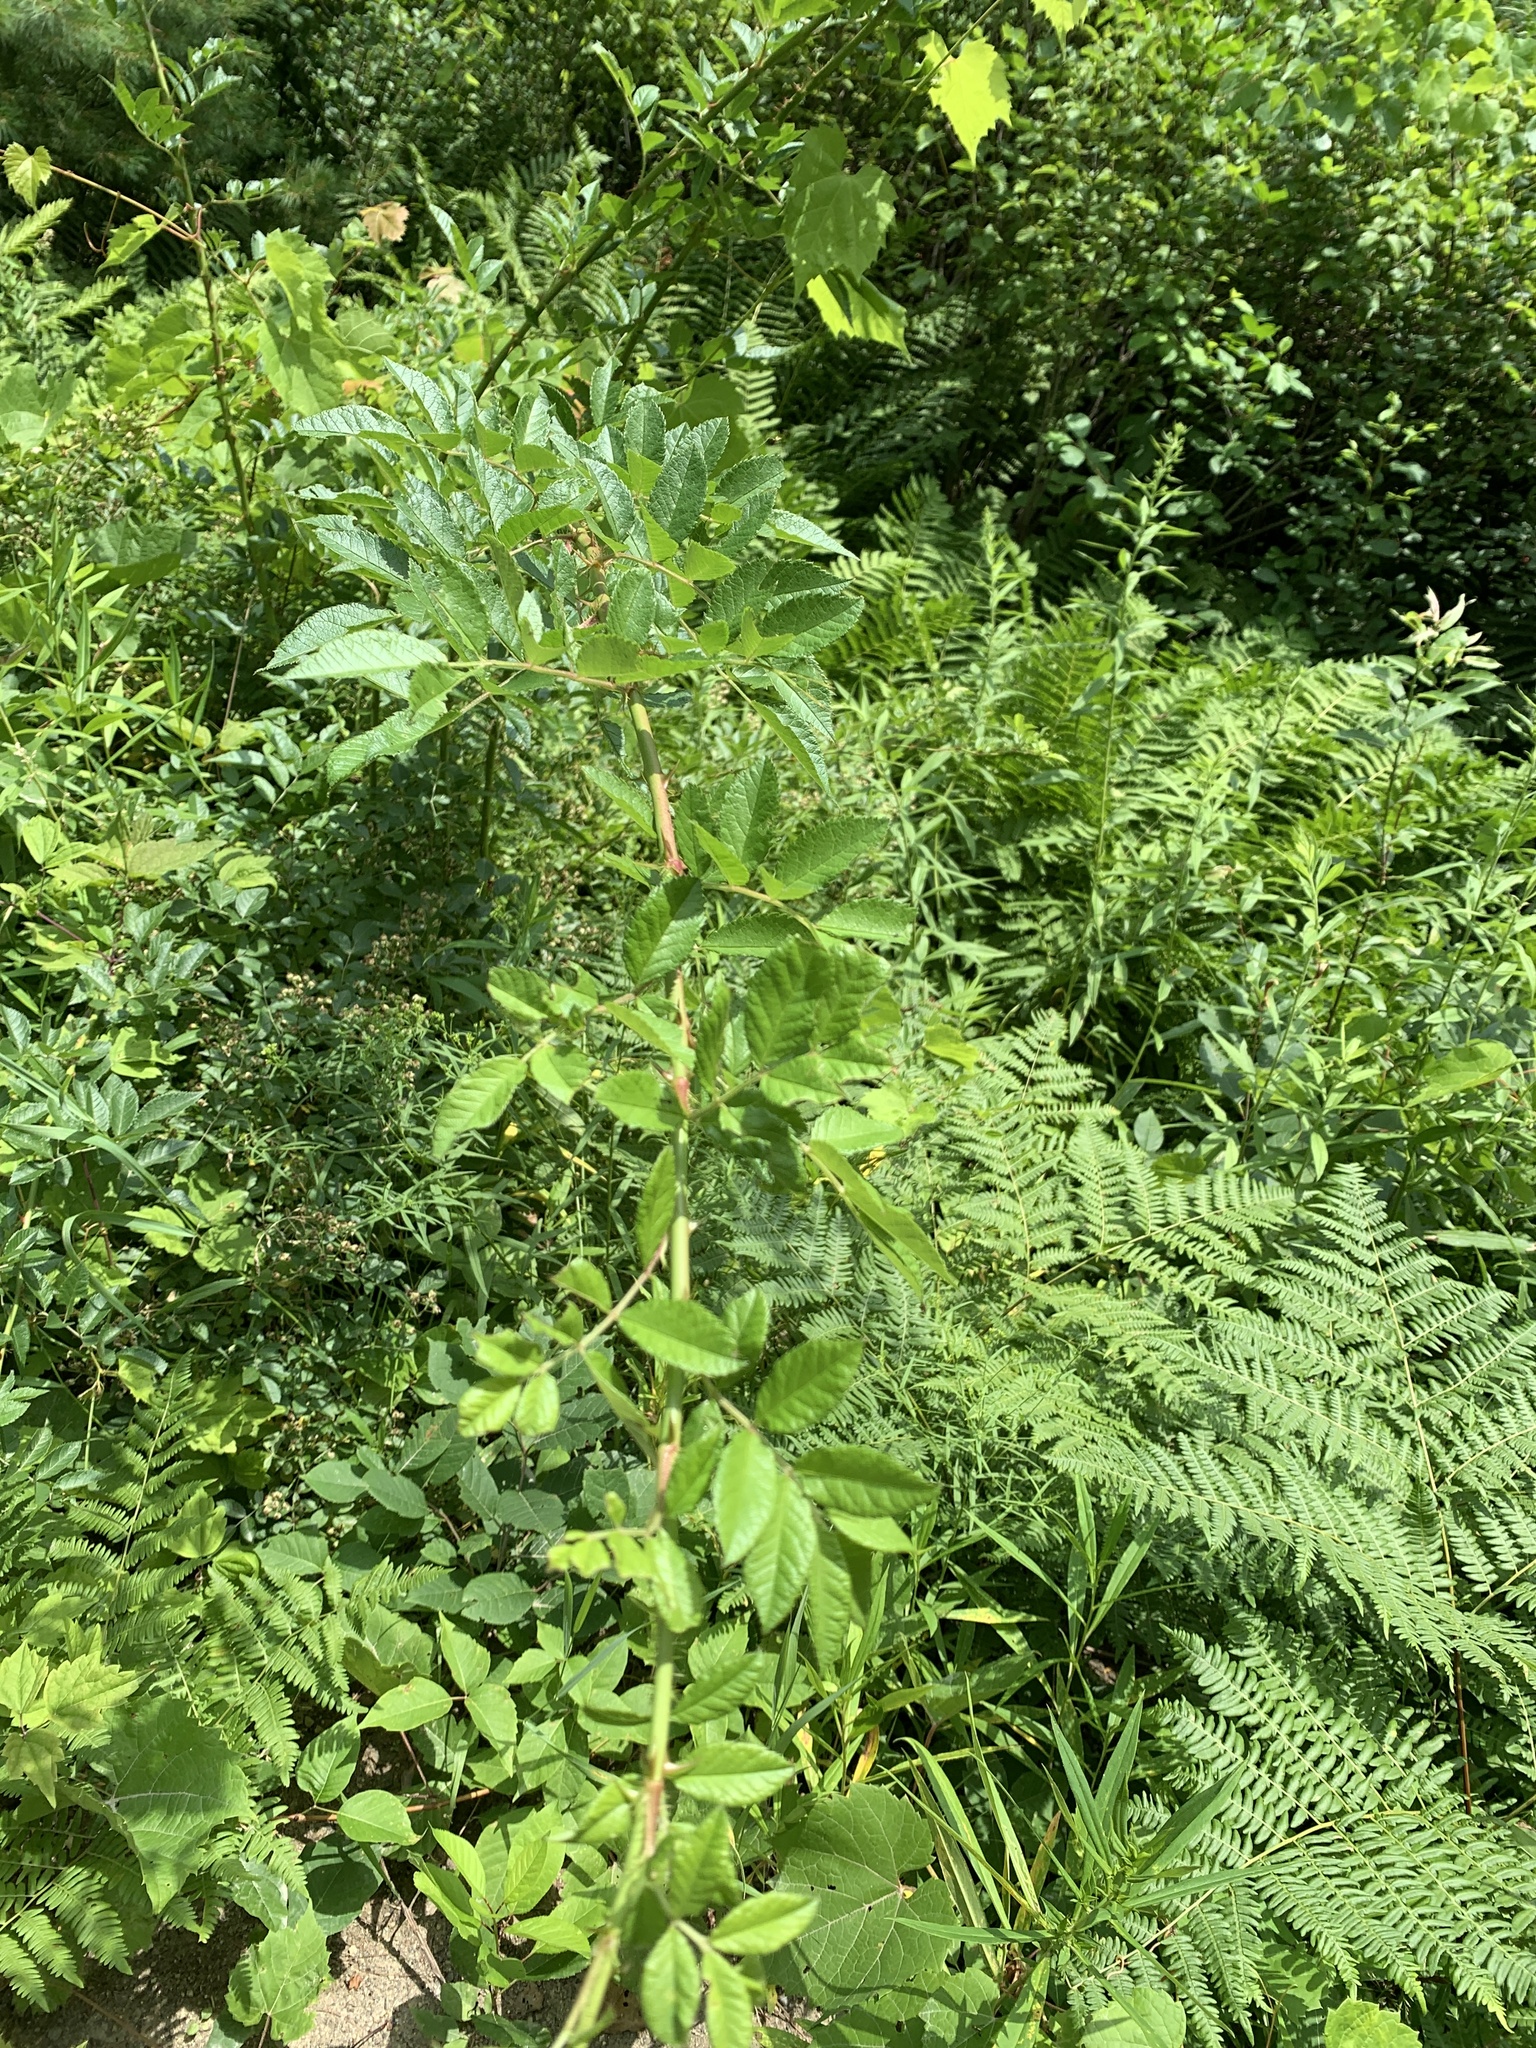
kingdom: Plantae
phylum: Tracheophyta
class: Polypodiopsida
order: Polypodiales
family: Dennstaedtiaceae
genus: Pteridium
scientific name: Pteridium aquilinum
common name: Bracken
